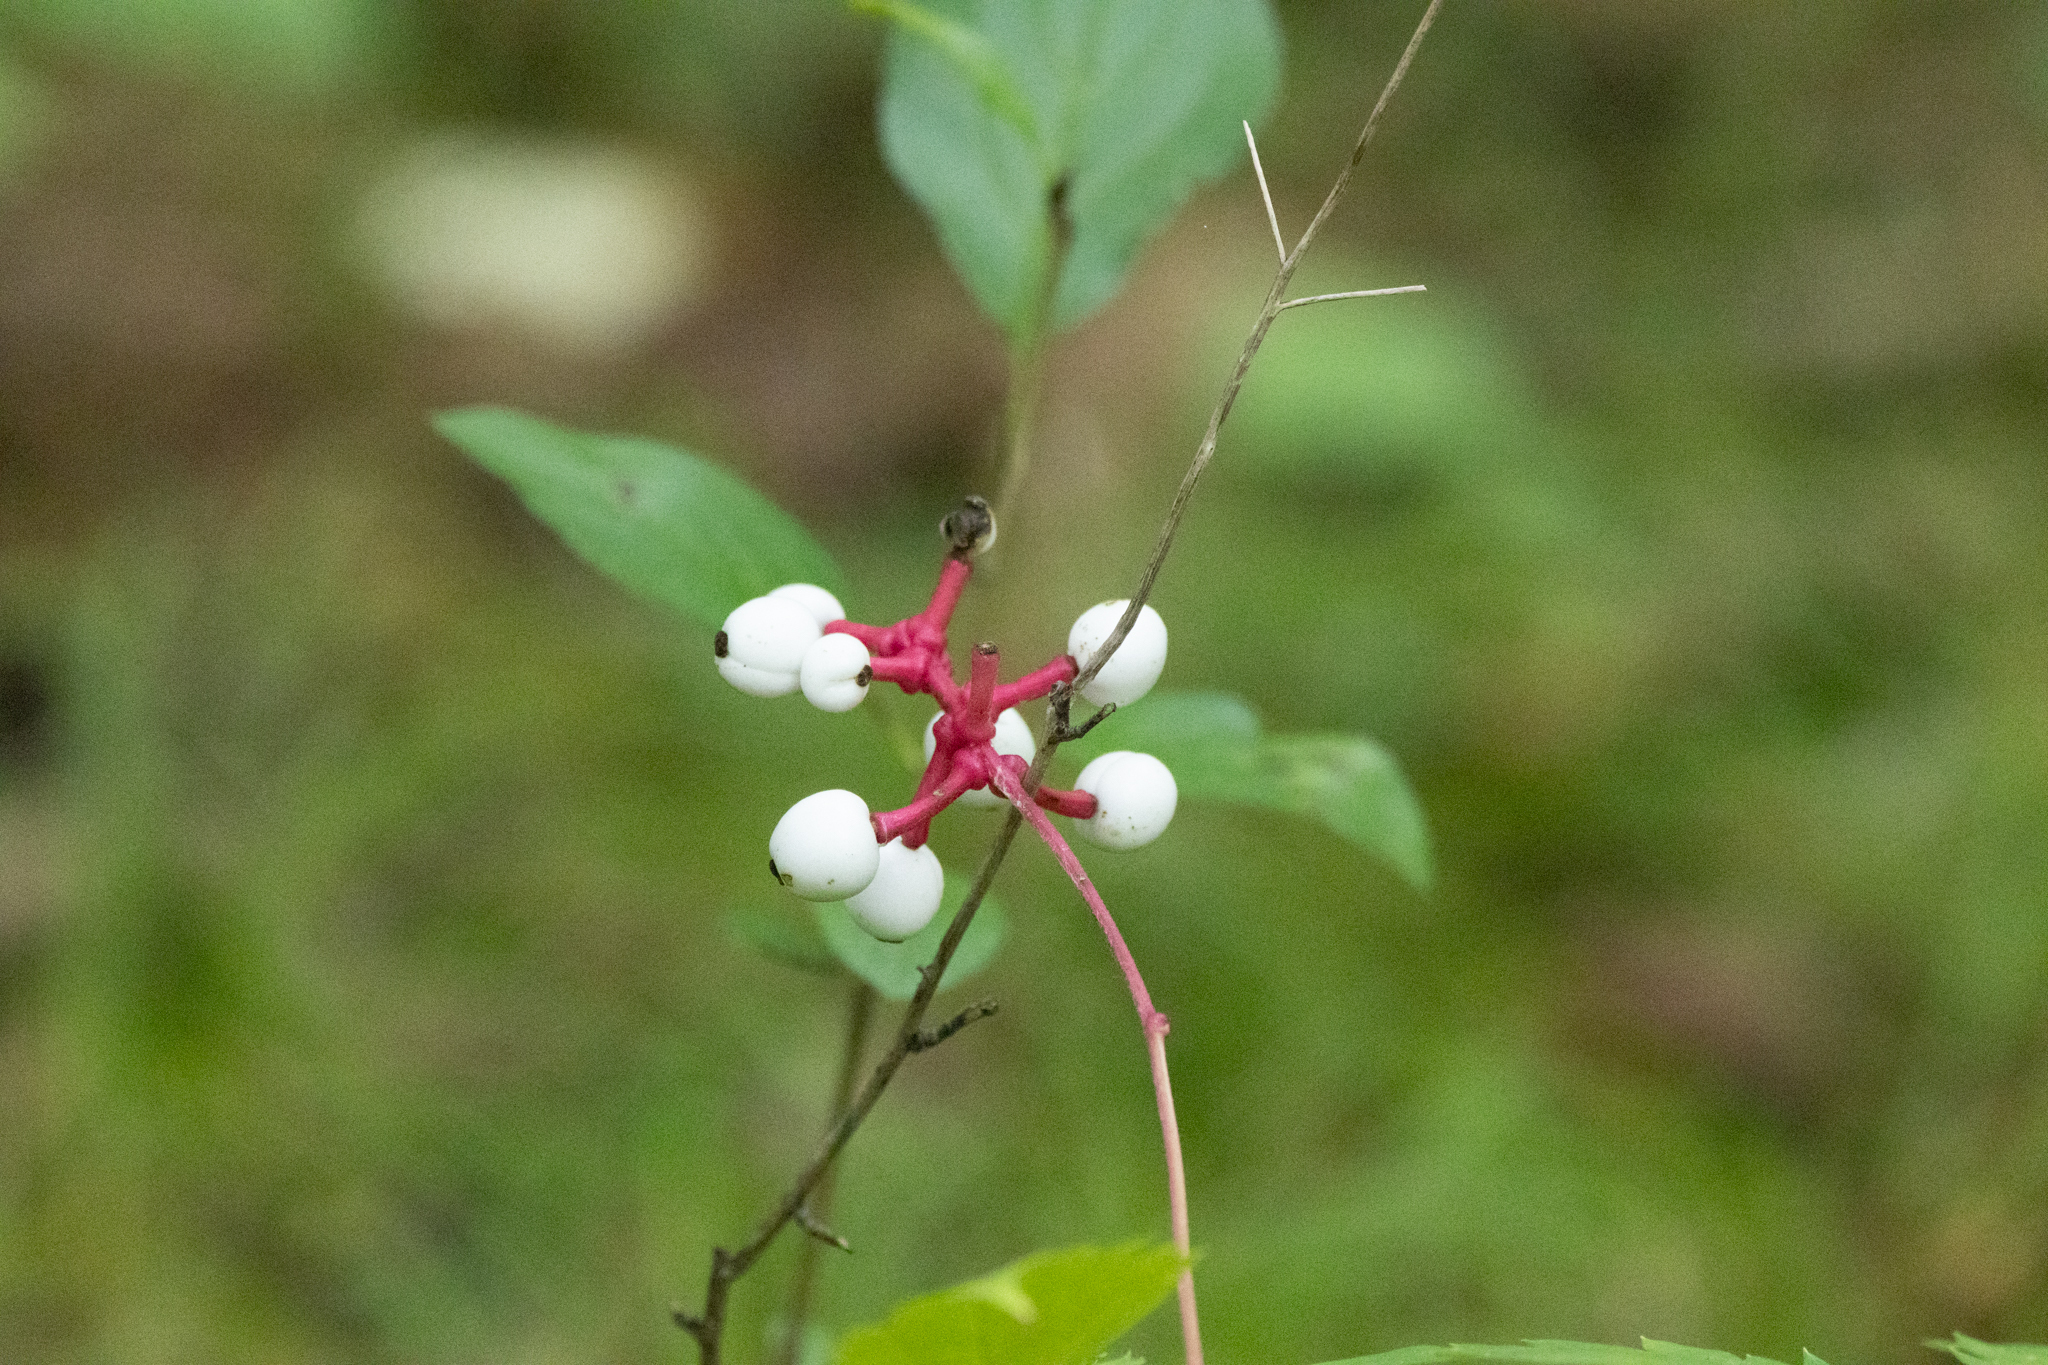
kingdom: Plantae
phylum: Tracheophyta
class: Magnoliopsida
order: Ranunculales
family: Ranunculaceae
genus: Actaea
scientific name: Actaea pachypoda
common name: Doll's-eyes
